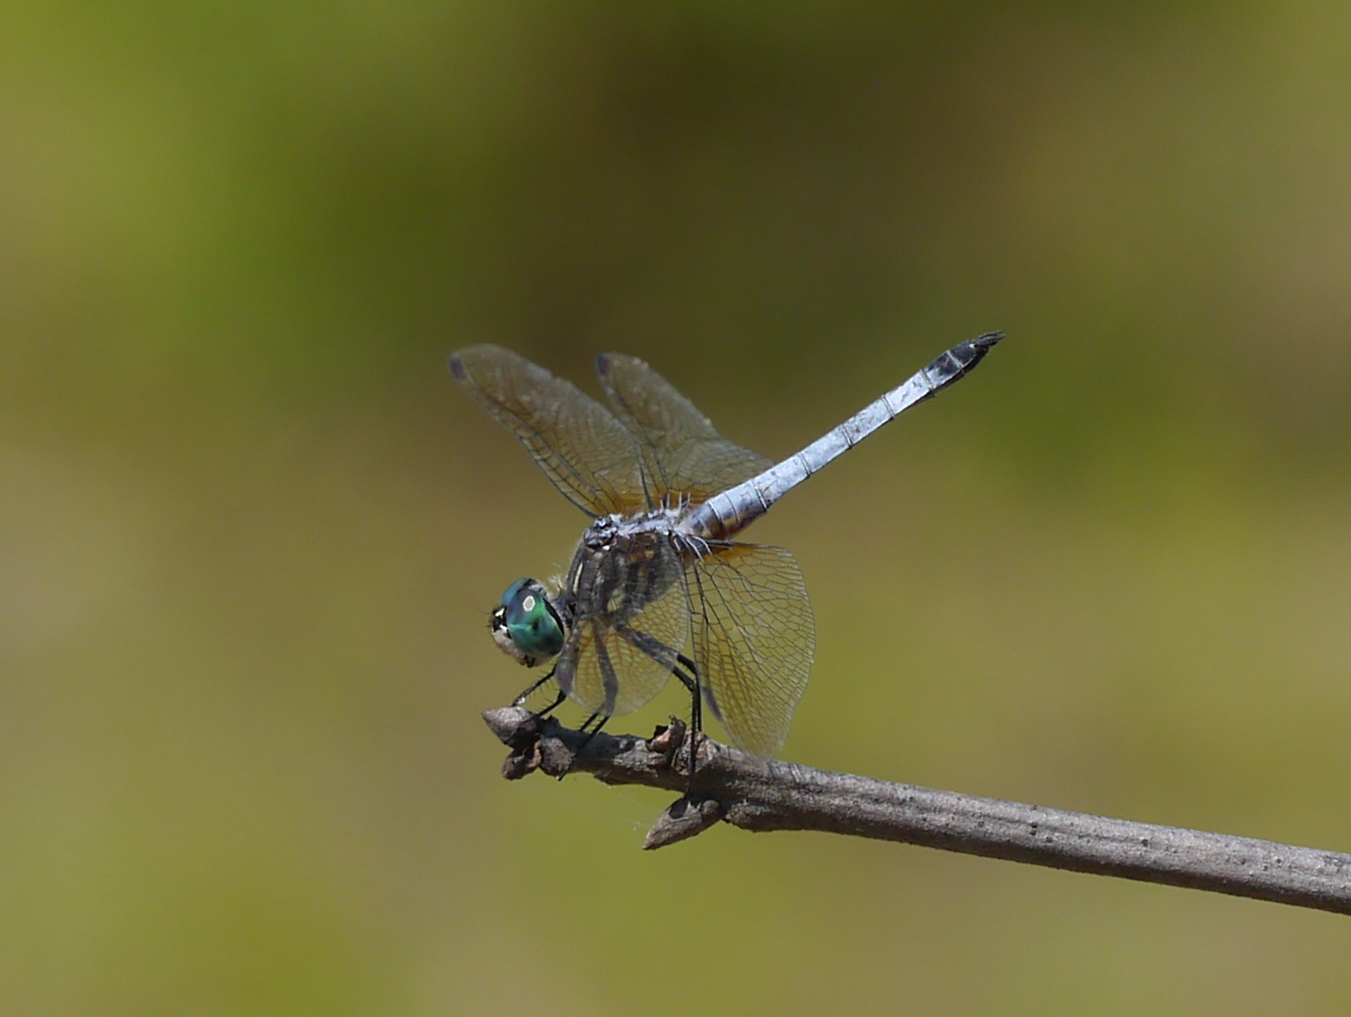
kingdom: Animalia
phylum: Arthropoda
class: Insecta
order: Odonata
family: Libellulidae
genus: Pachydiplax
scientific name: Pachydiplax longipennis
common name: Blue dasher
